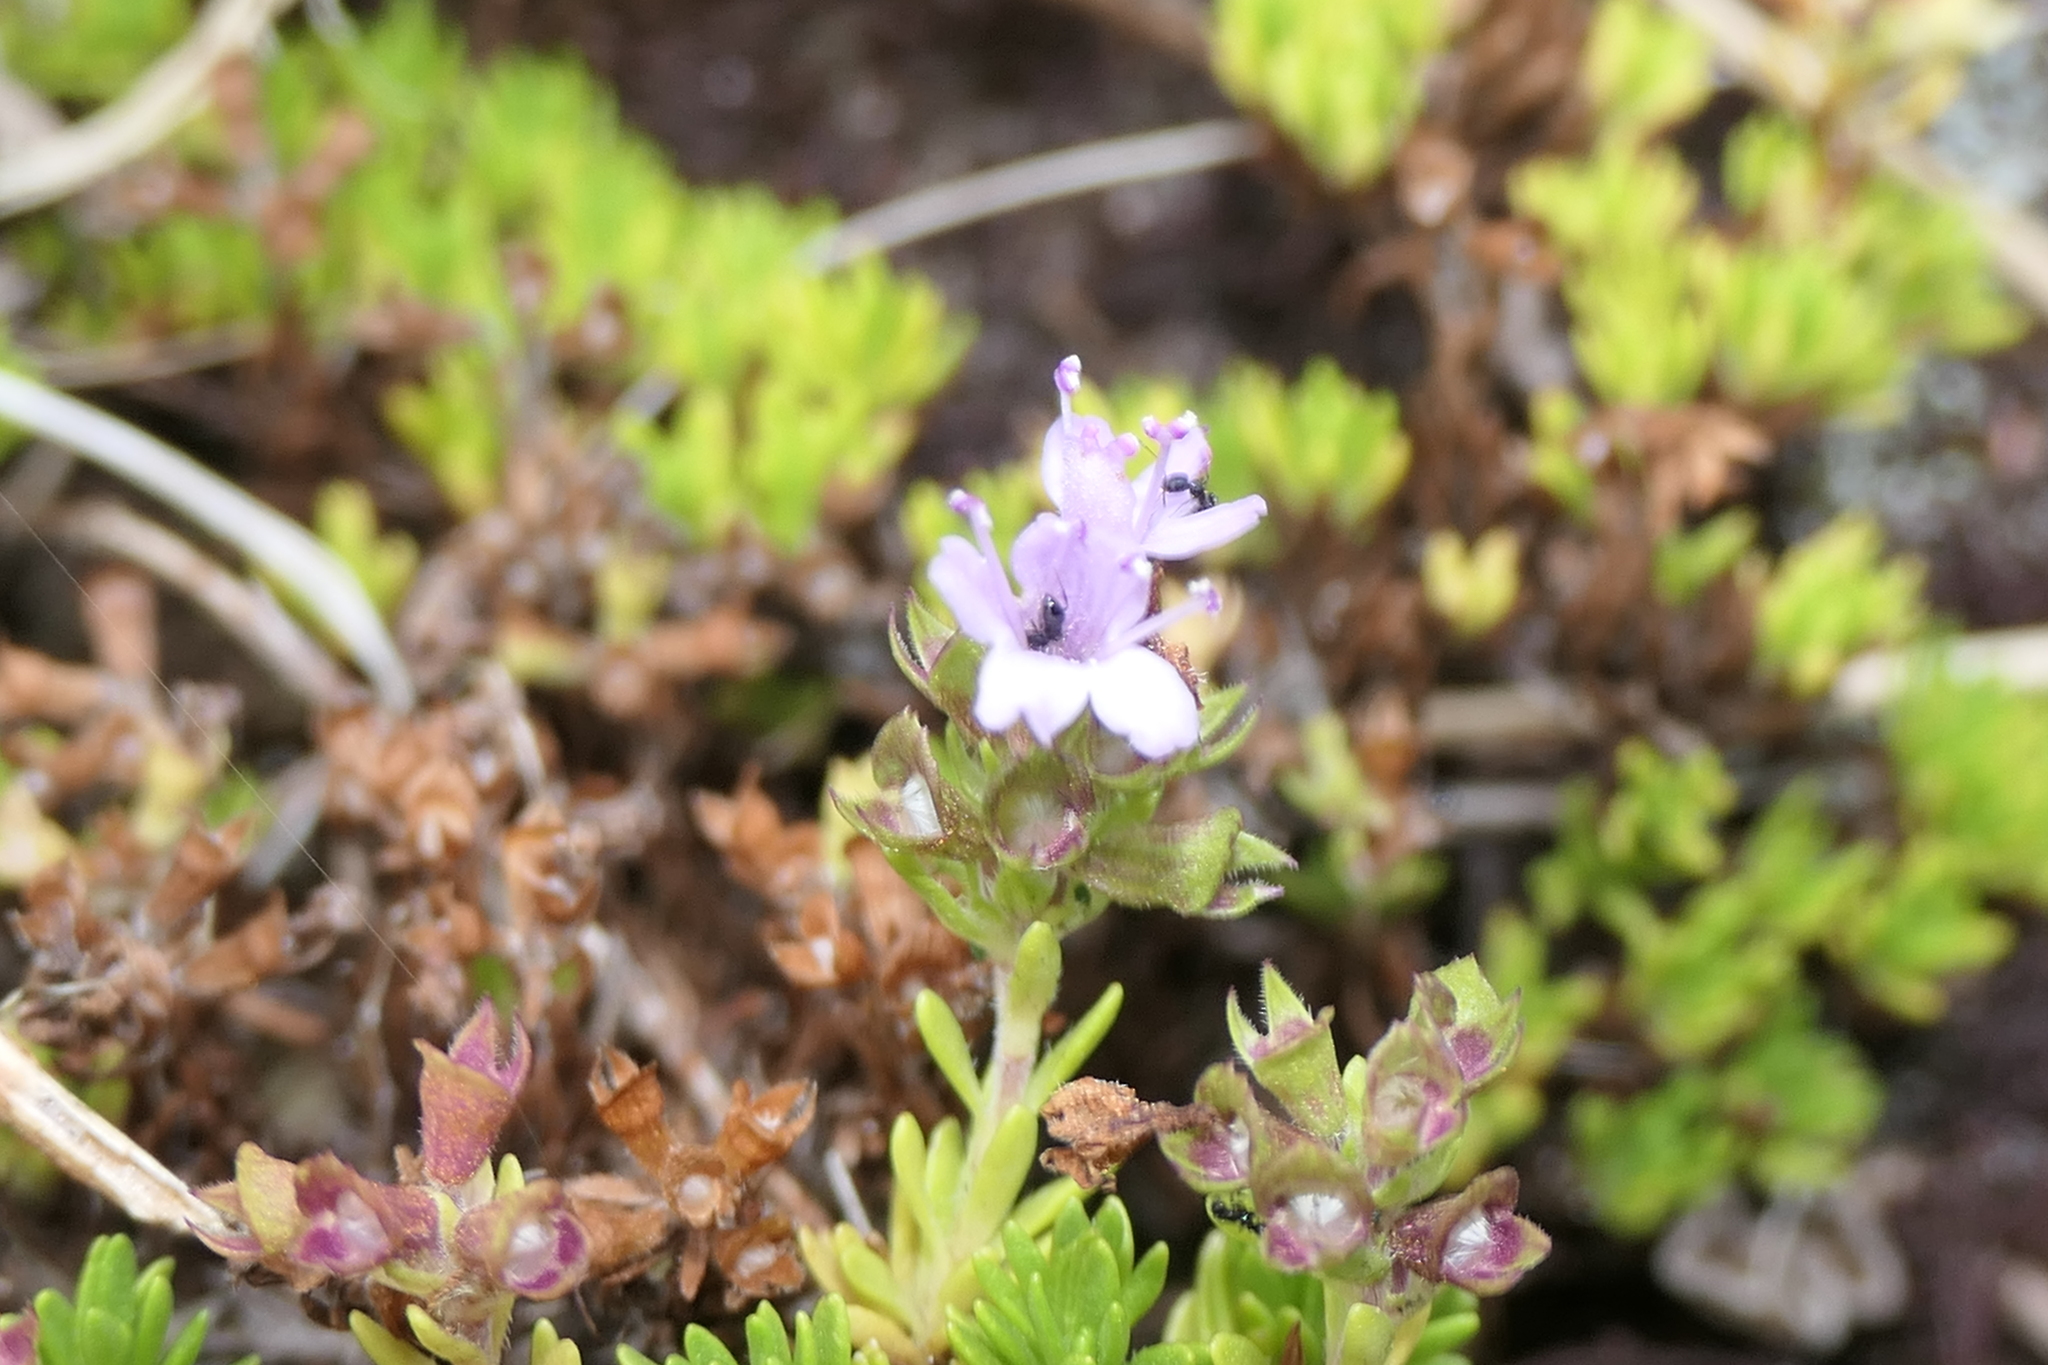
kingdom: Plantae
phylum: Tracheophyta
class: Magnoliopsida
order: Lamiales
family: Lamiaceae
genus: Thymus
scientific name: Thymus caespititius
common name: Azores thyme
